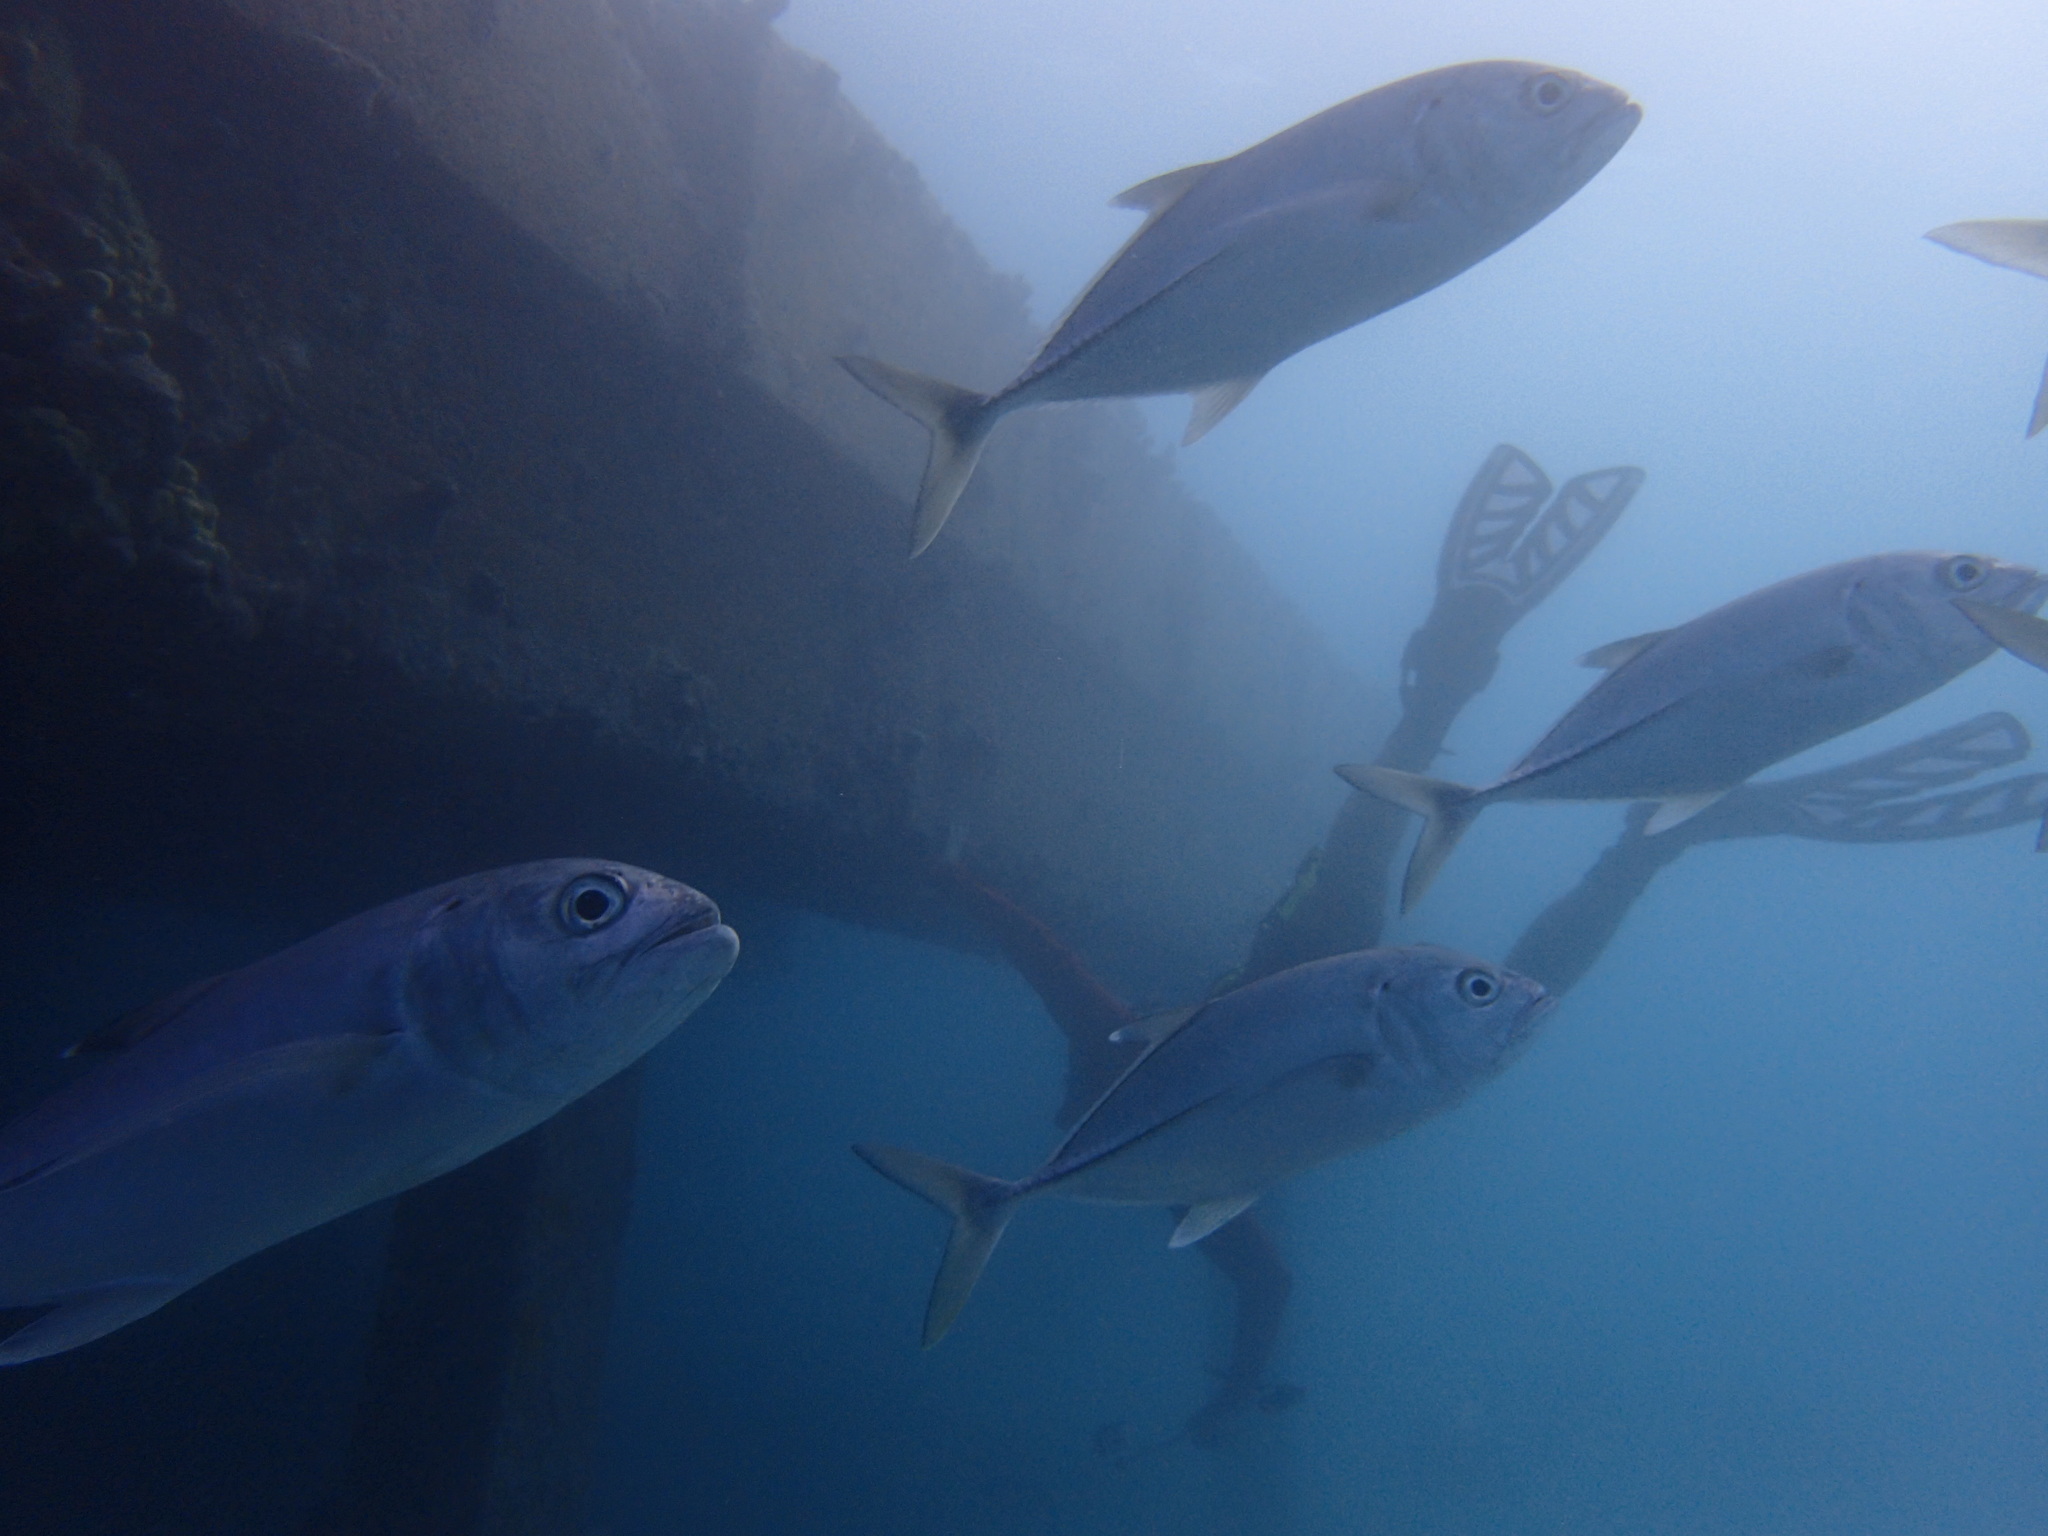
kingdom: Animalia
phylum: Chordata
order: Perciformes
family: Carangidae
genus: Caranx
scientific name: Caranx sexfasciatus
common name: Bigeye trevally
